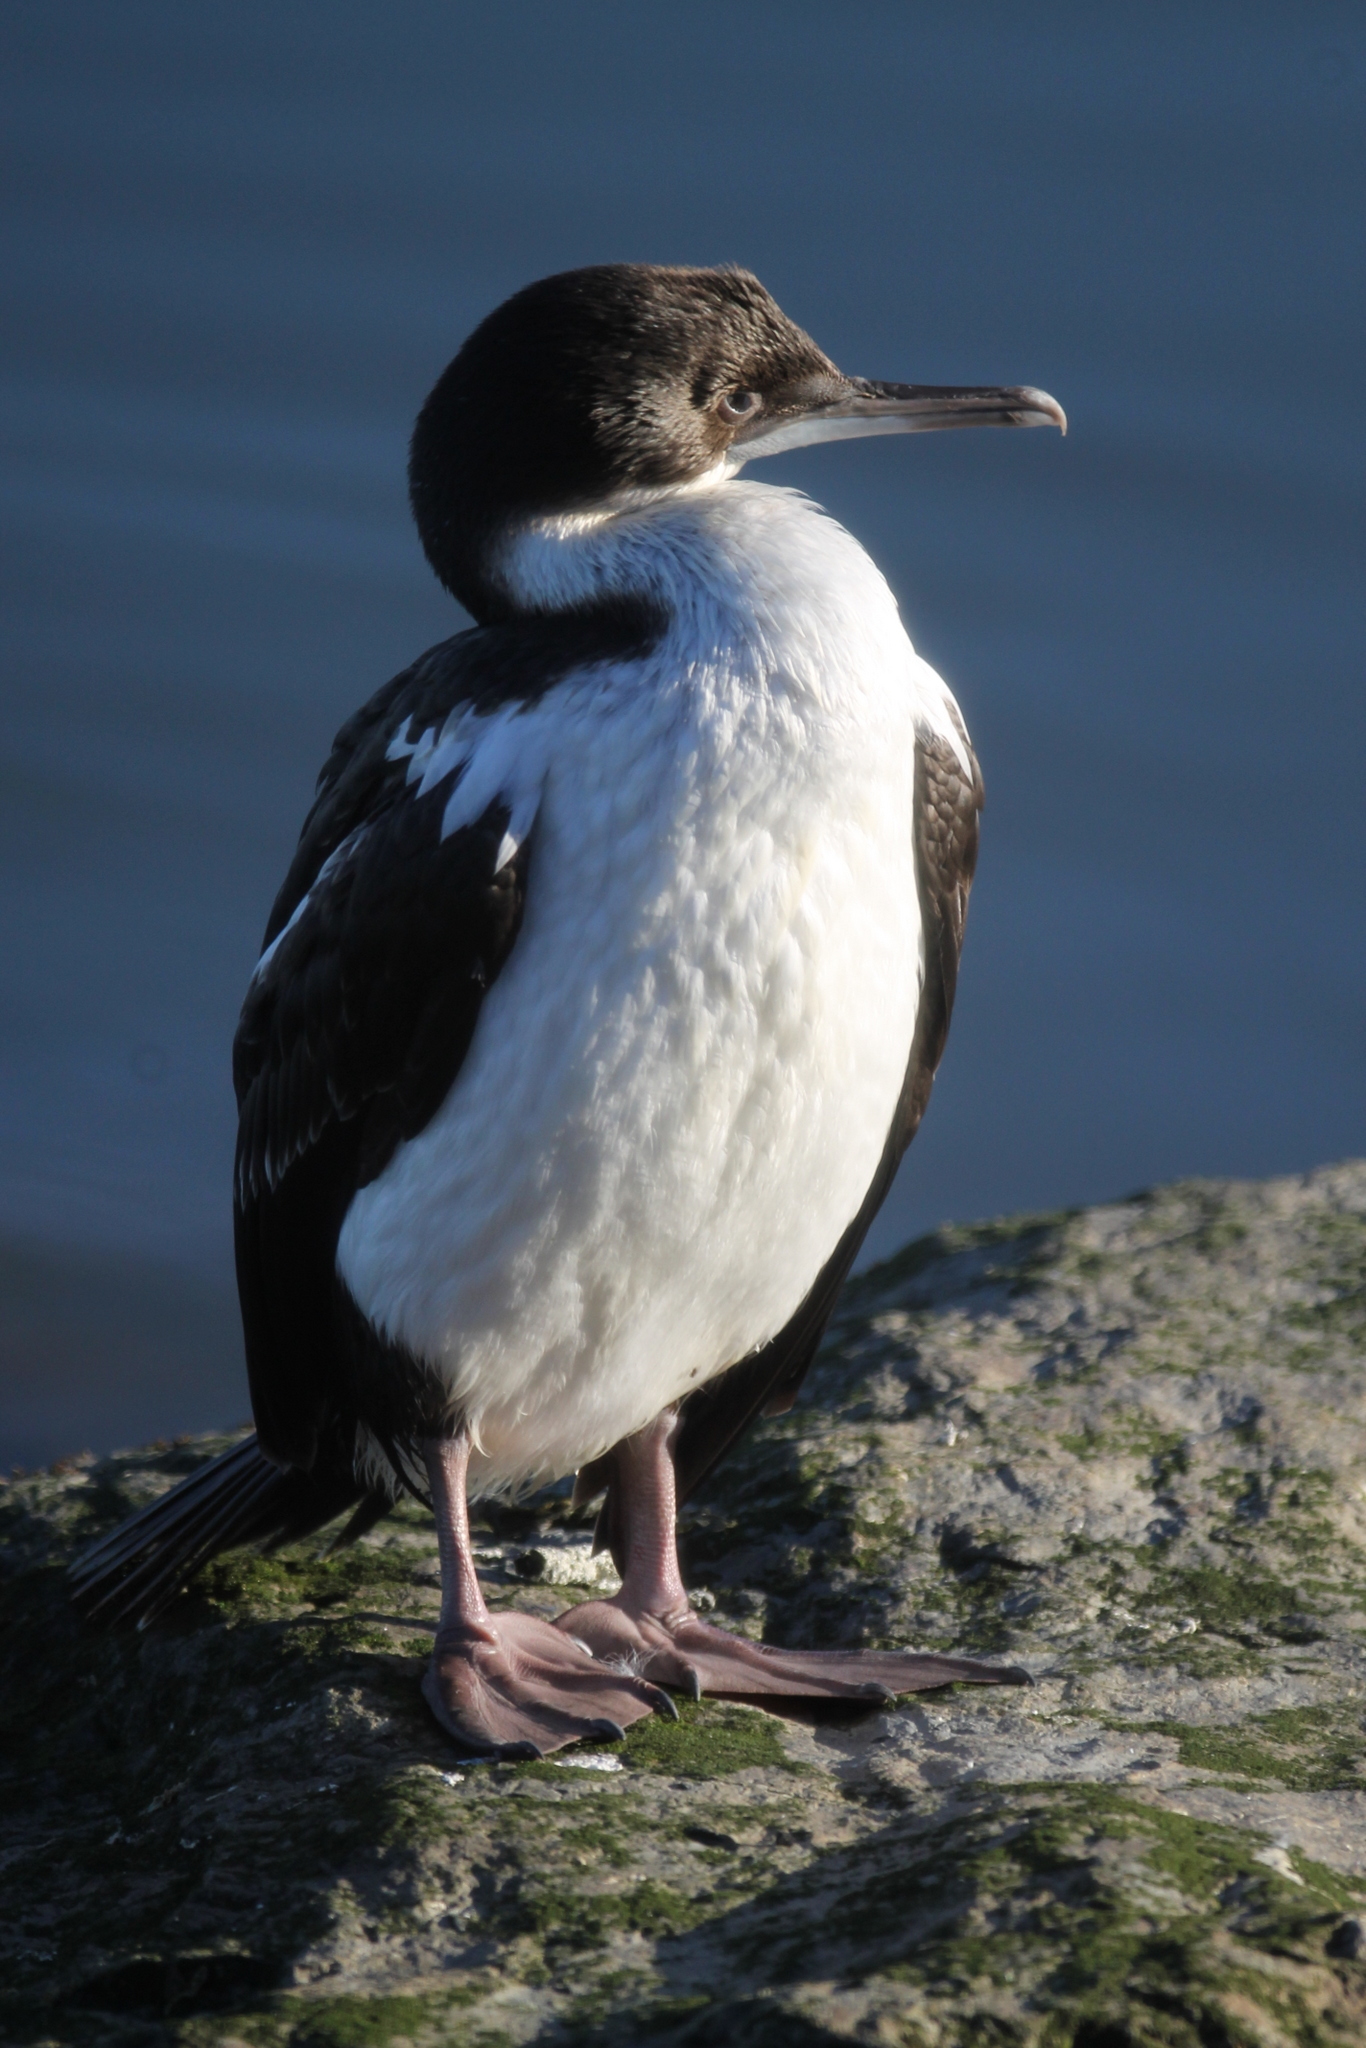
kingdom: Animalia
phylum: Chordata
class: Aves
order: Suliformes
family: Phalacrocoracidae
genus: Leucocarbo
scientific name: Leucocarbo atriceps
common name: Imperial shag
